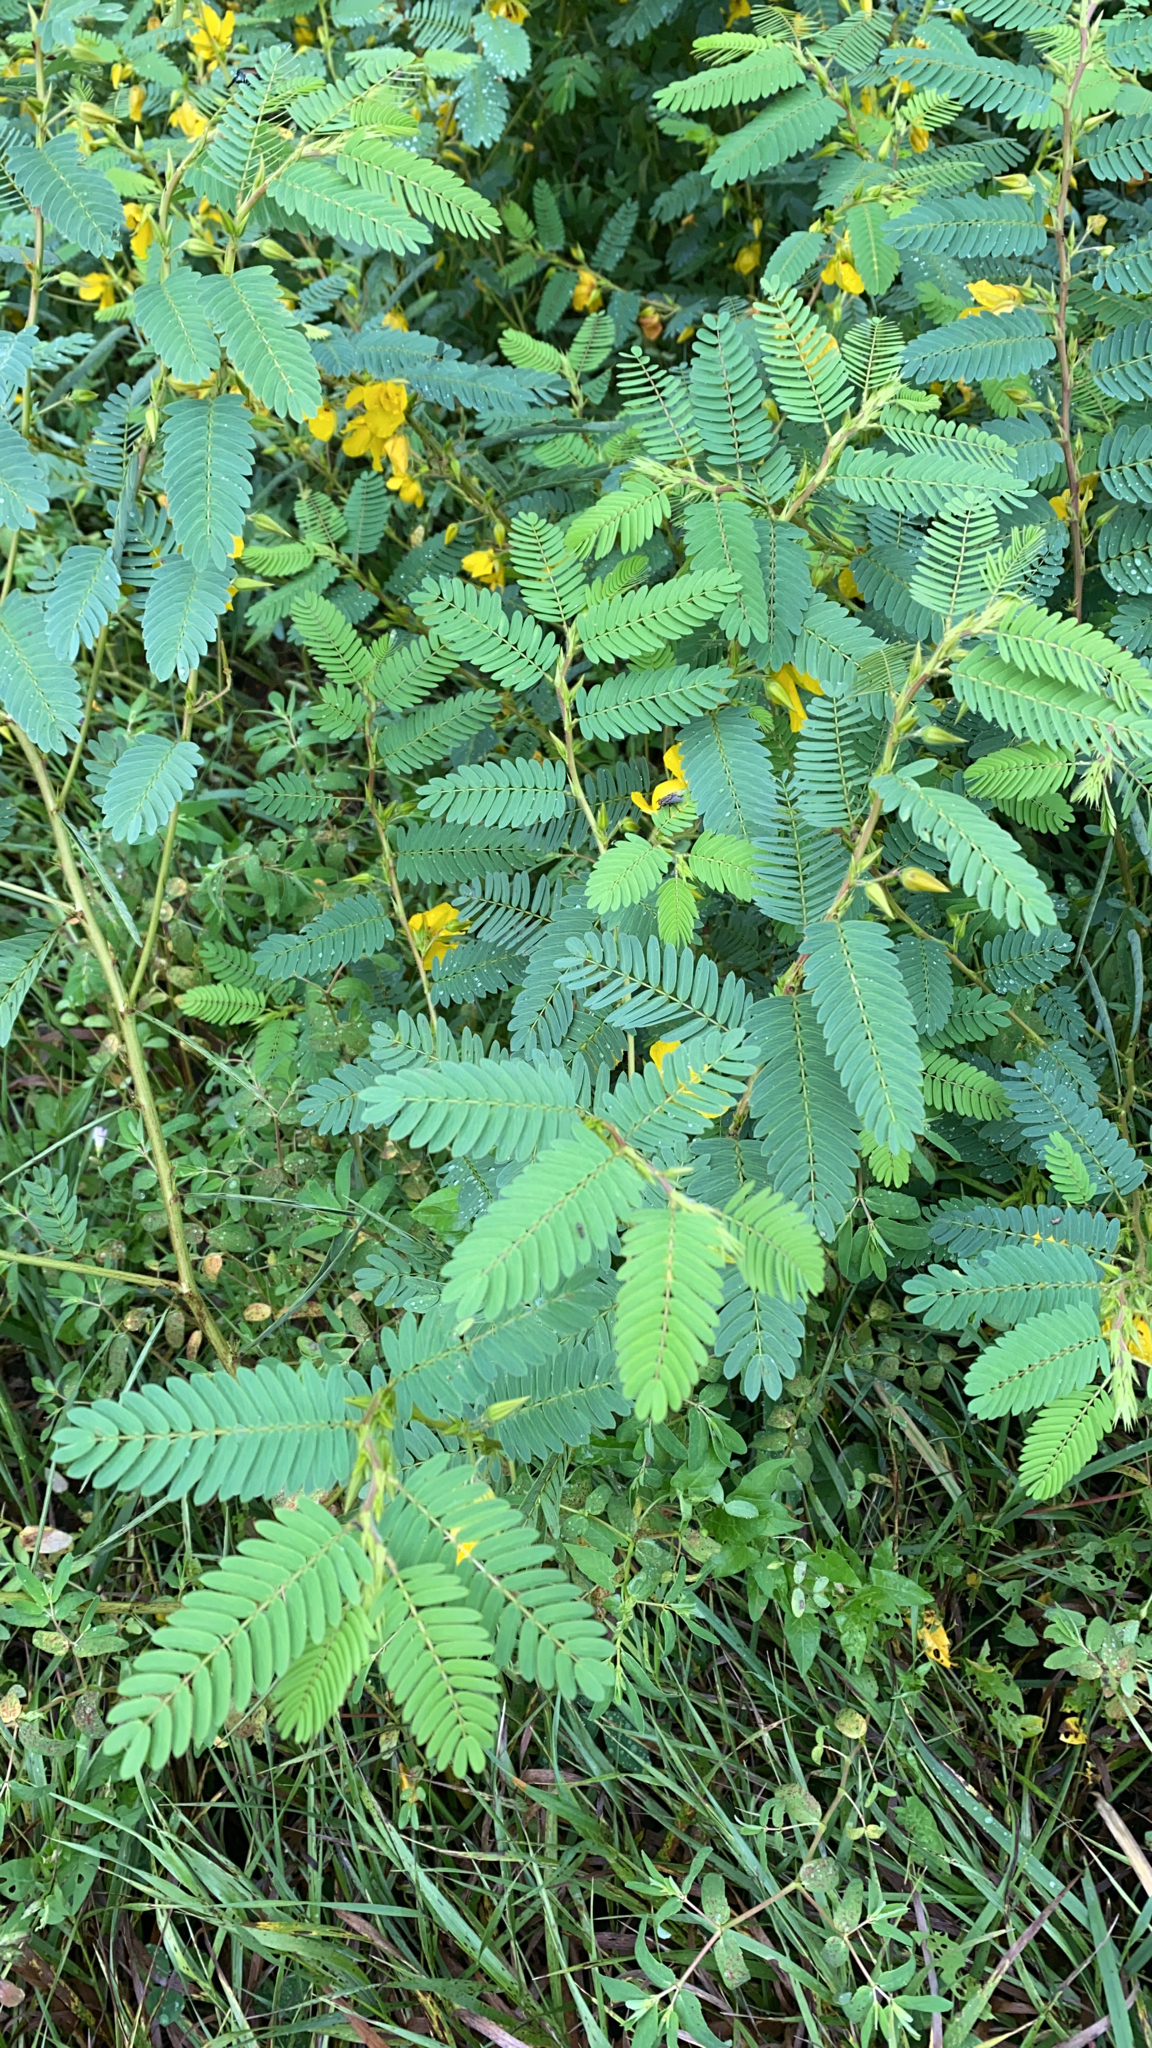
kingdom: Plantae
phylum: Tracheophyta
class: Magnoliopsida
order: Fabales
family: Fabaceae
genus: Chamaecrista
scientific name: Chamaecrista fasciculata
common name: Golden cassia
